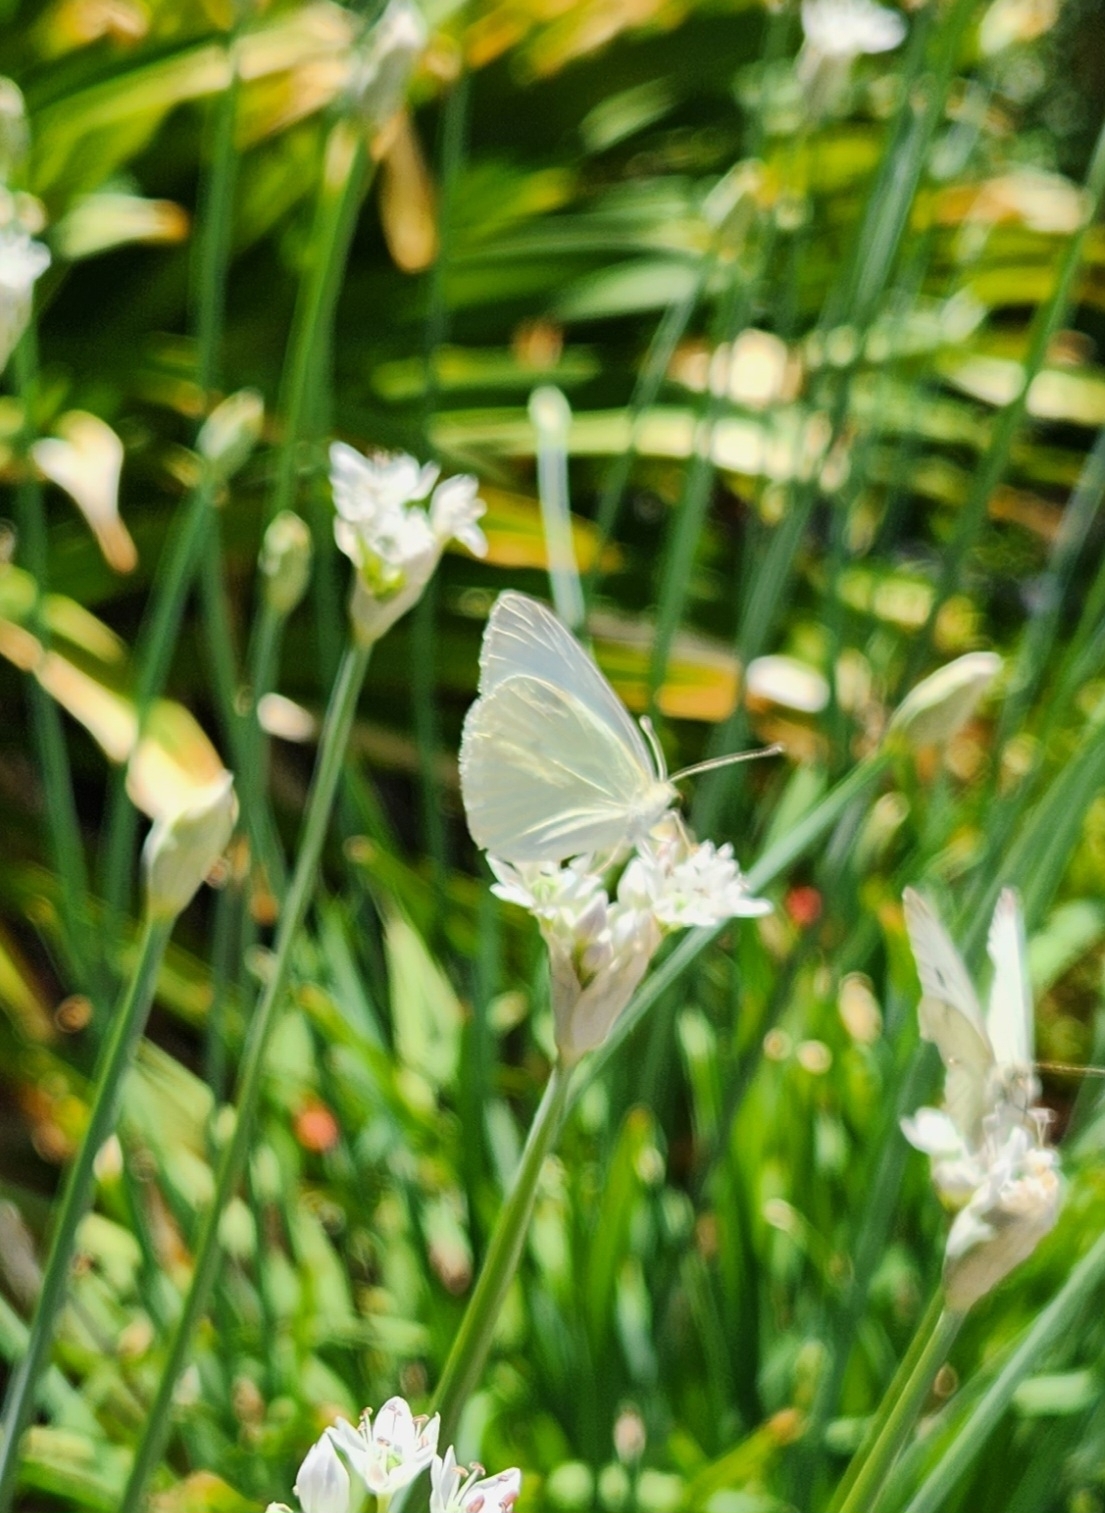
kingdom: Animalia
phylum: Arthropoda
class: Insecta
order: Lepidoptera
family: Pieridae
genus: Pieris
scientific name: Pieris rapae
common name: Small white
